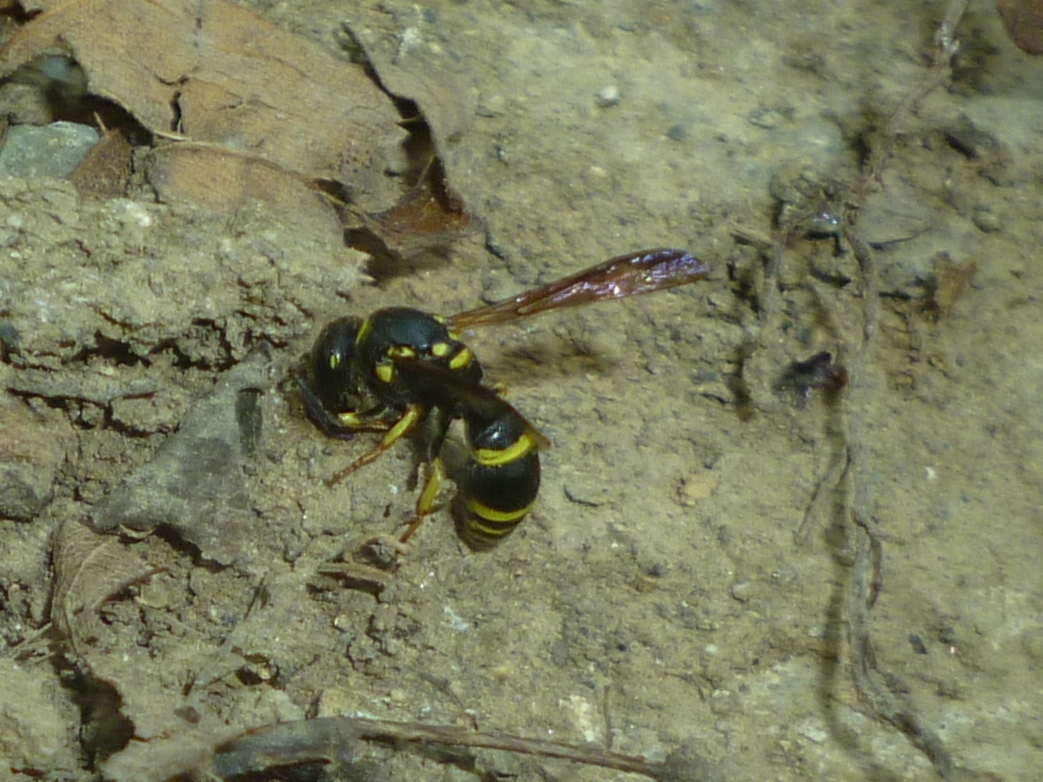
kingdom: Animalia
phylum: Arthropoda
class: Insecta
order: Hymenoptera
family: Vespidae
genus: Ancistrocerus
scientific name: Ancistrocerus adiabatus
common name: Bramble mason wasp
